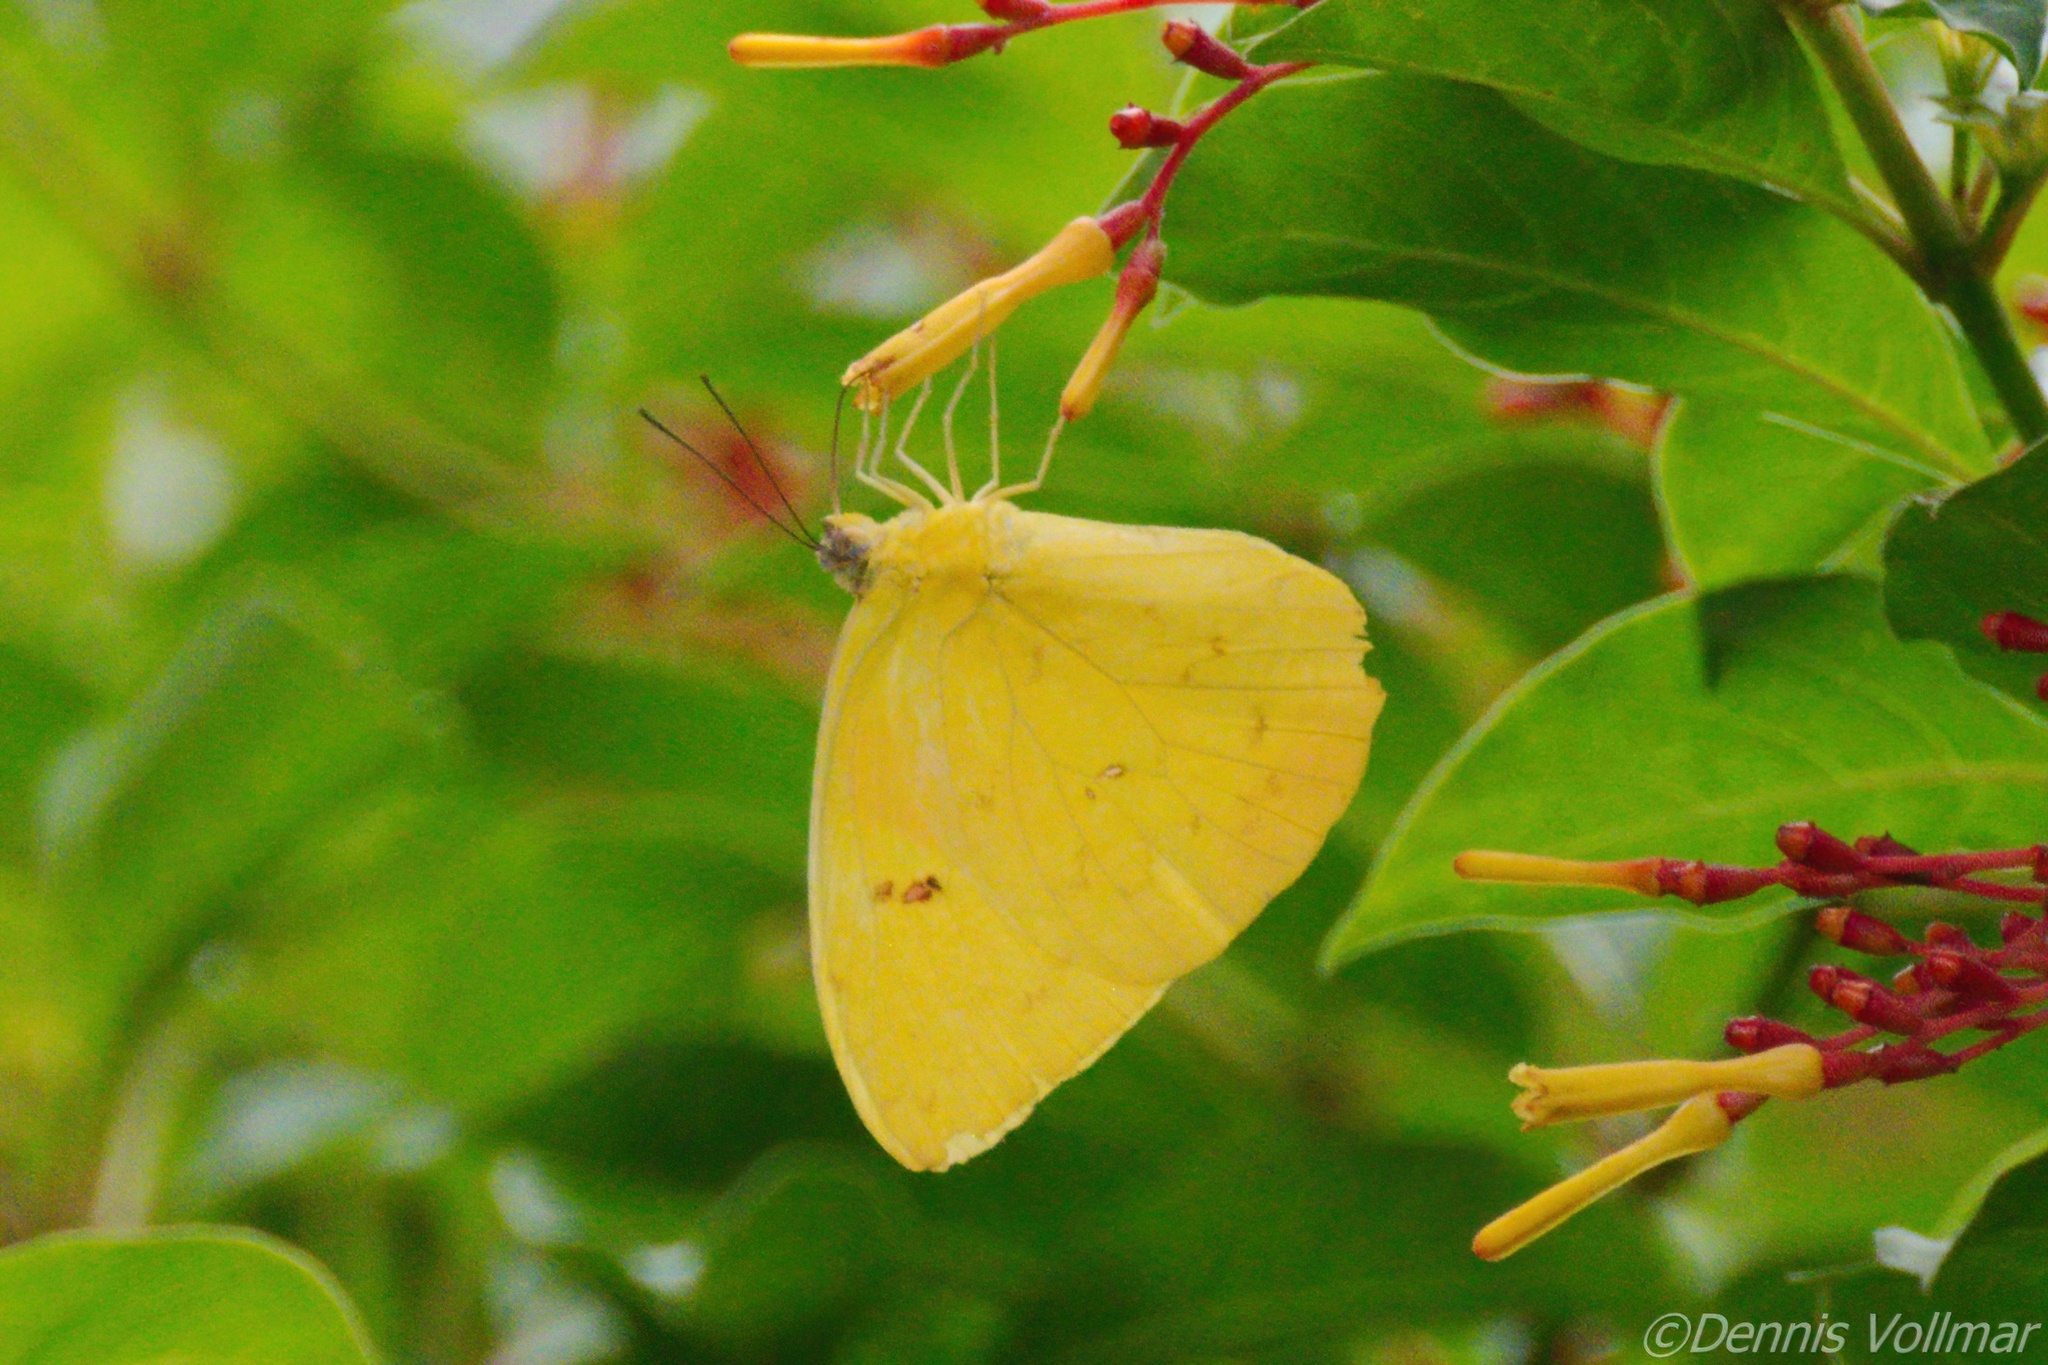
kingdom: Animalia
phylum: Arthropoda
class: Insecta
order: Lepidoptera
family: Pieridae
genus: Phoebis
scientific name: Phoebis philea
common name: Orange-barred giant sulphur
